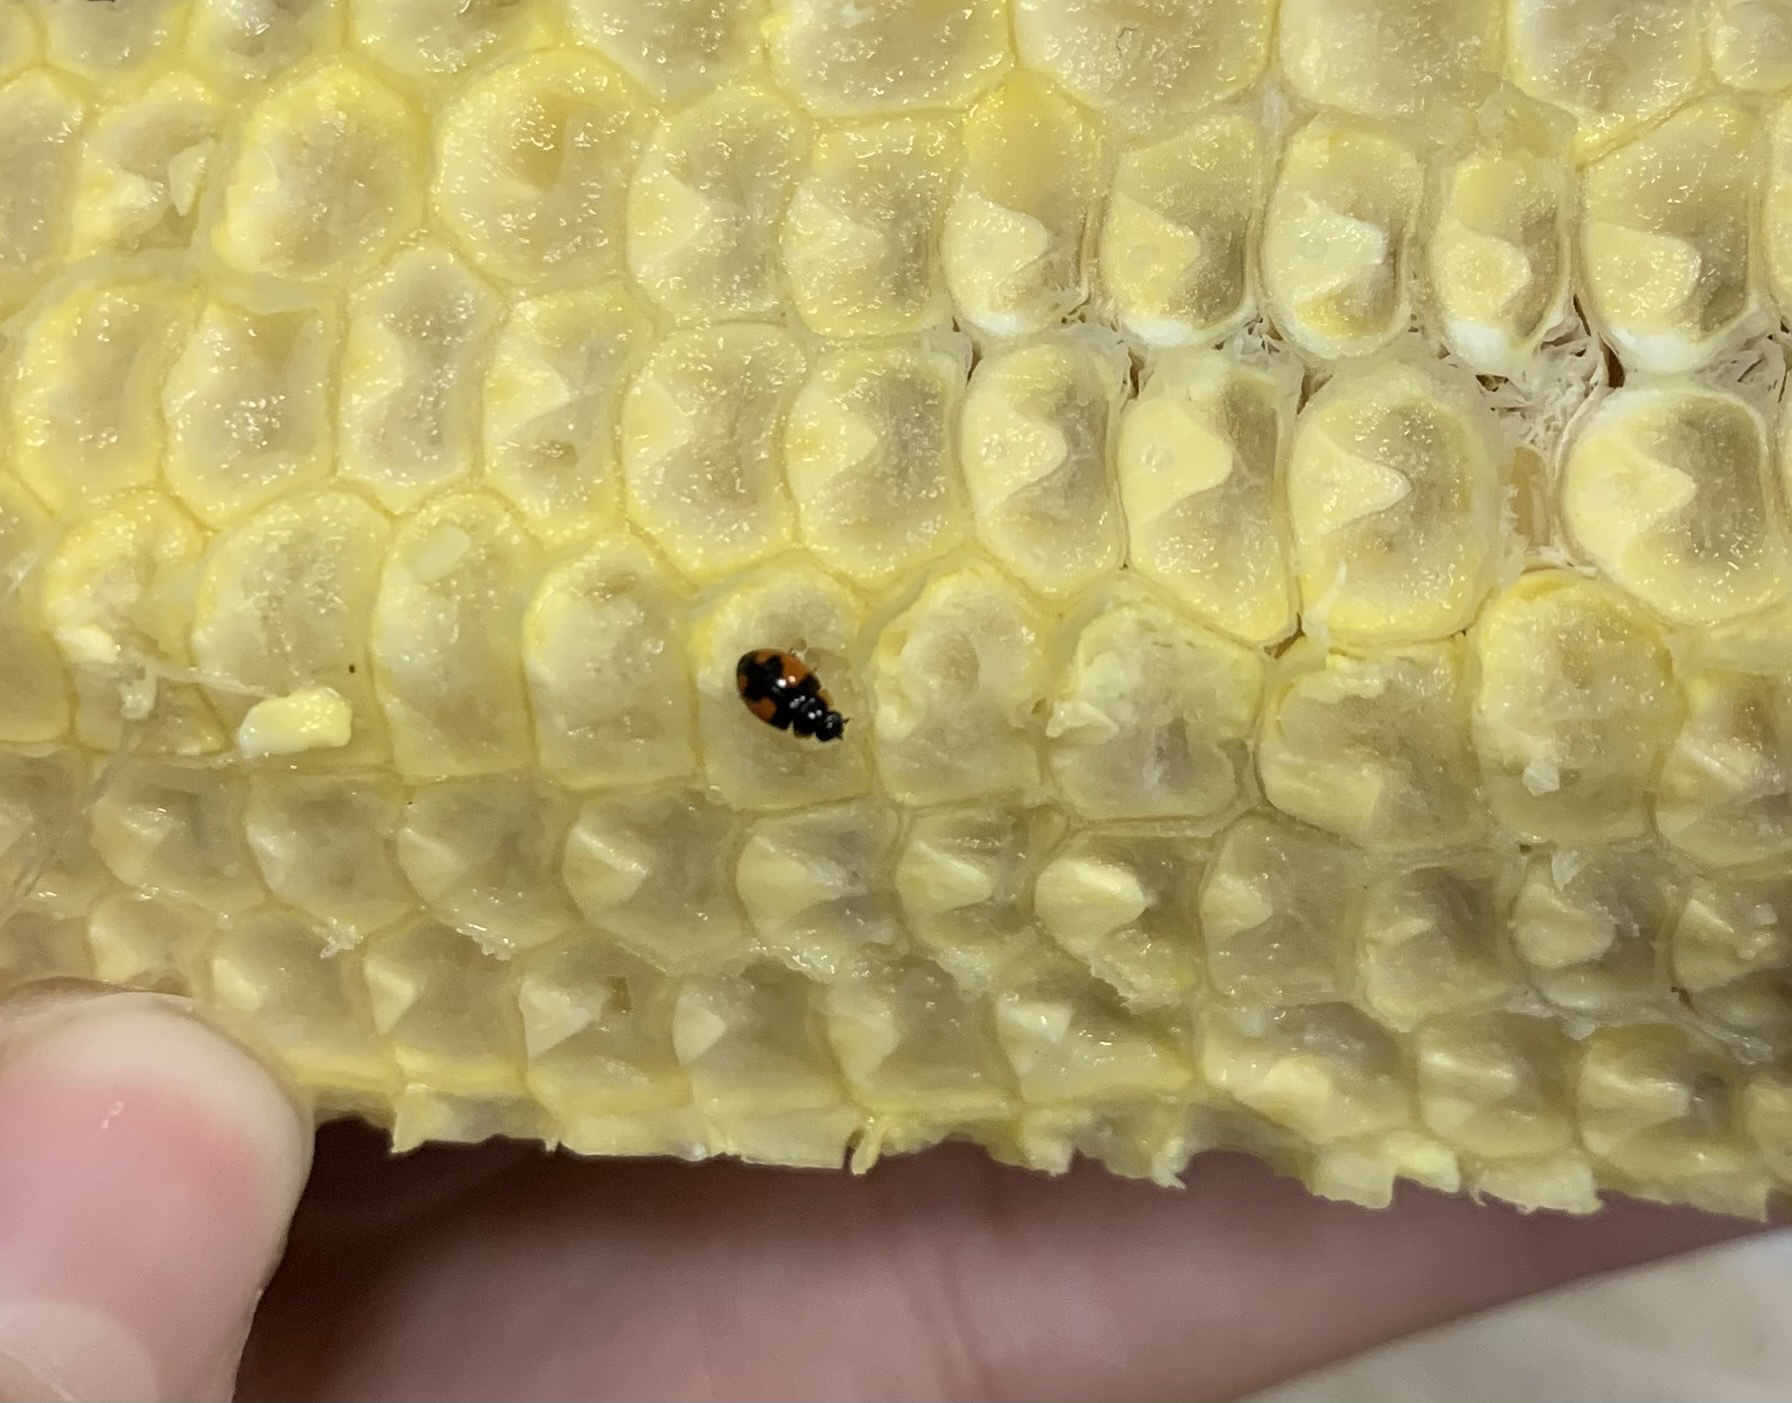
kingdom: Animalia
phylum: Arthropoda
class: Insecta
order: Coleoptera
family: Coccinellidae
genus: Hyperaspis
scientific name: Hyperaspis
